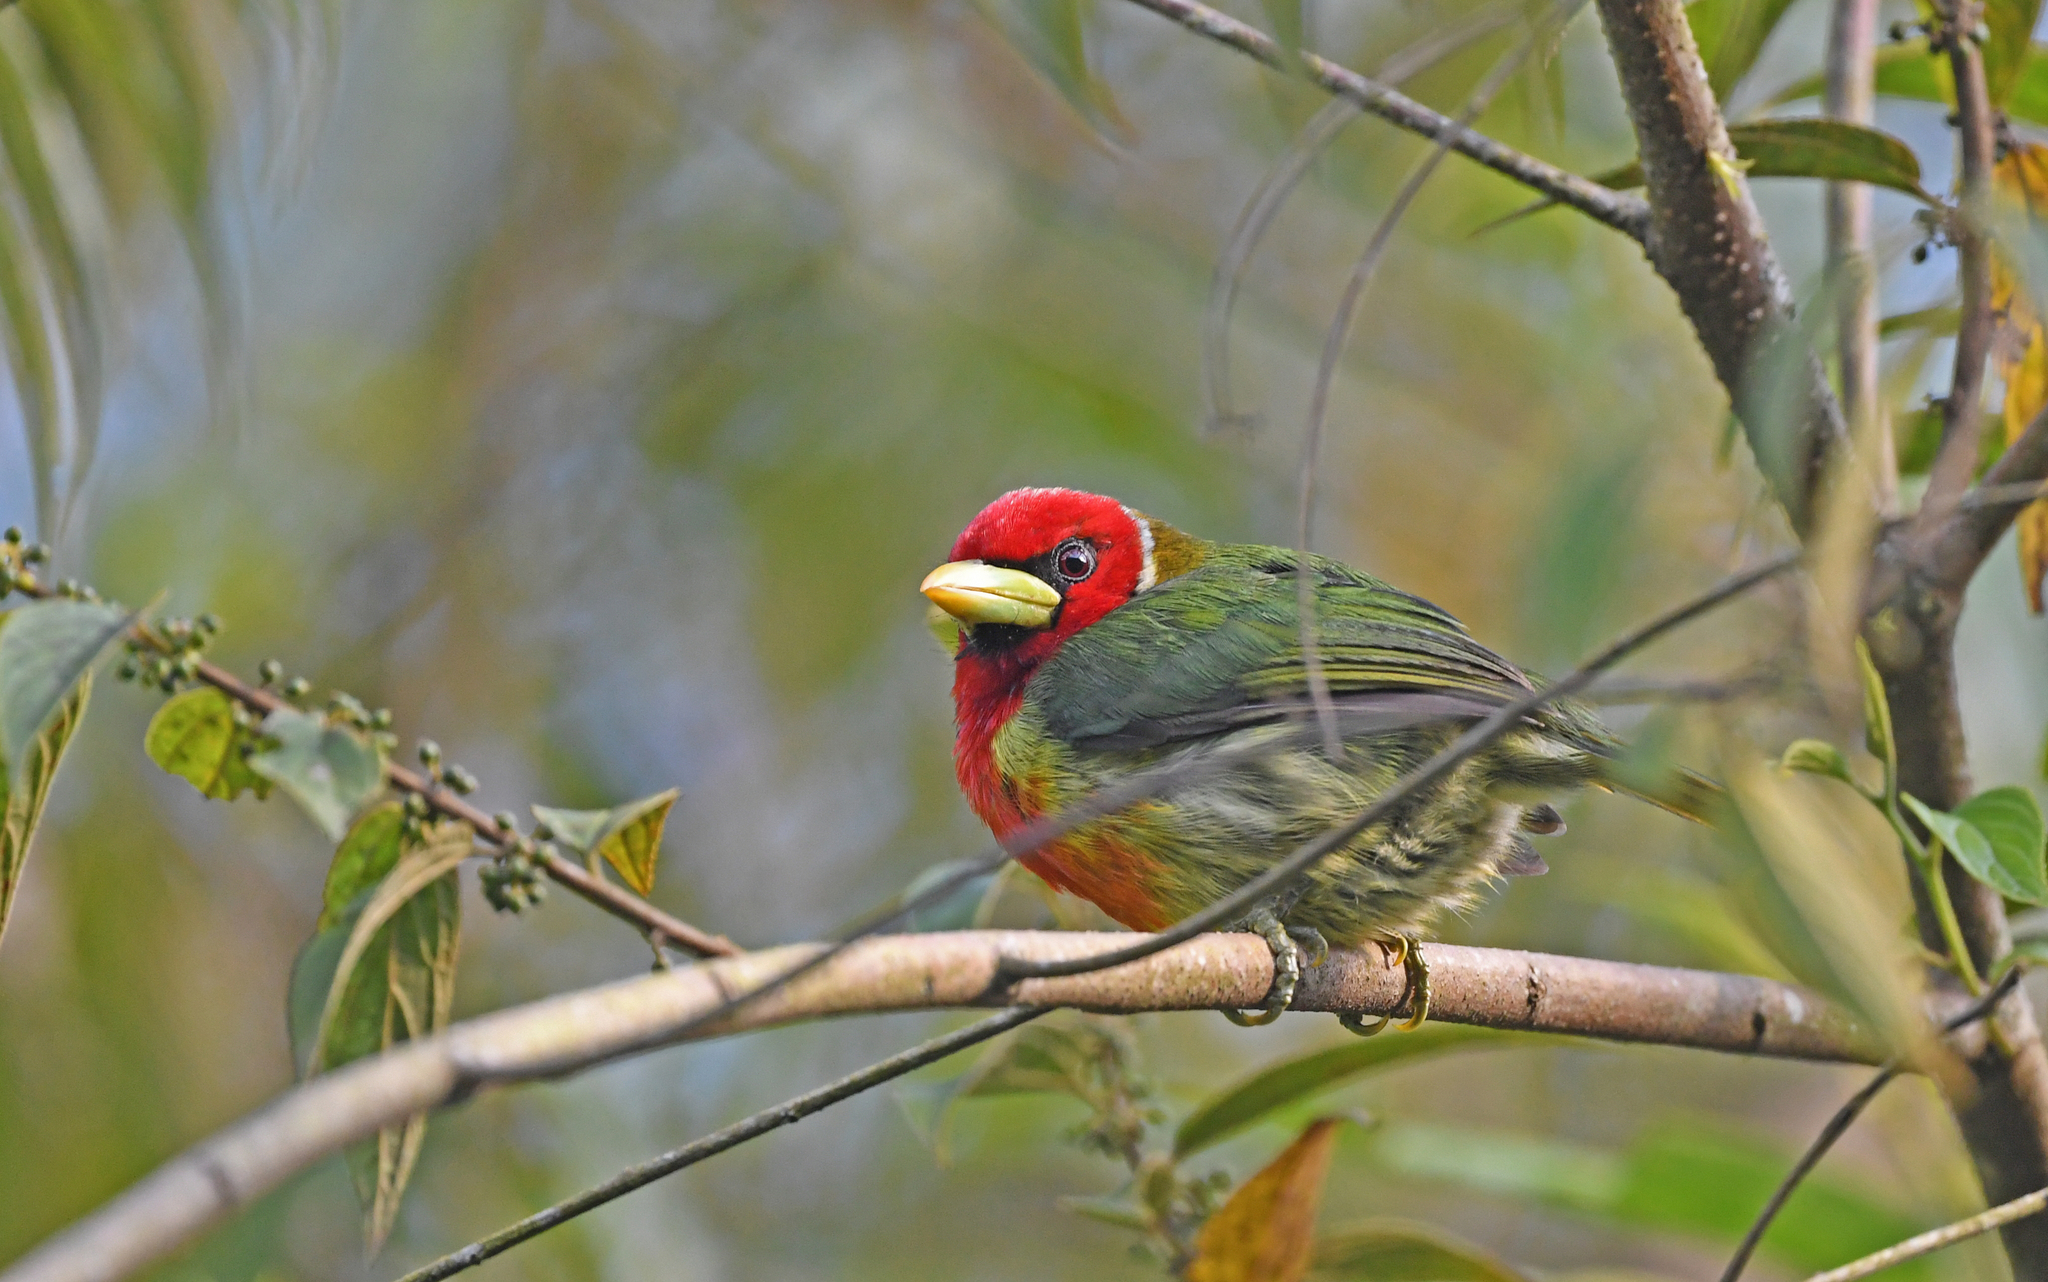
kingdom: Animalia
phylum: Chordata
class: Aves
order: Piciformes
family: Capitonidae
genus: Eubucco
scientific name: Eubucco bourcierii
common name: Red-headed barbet
